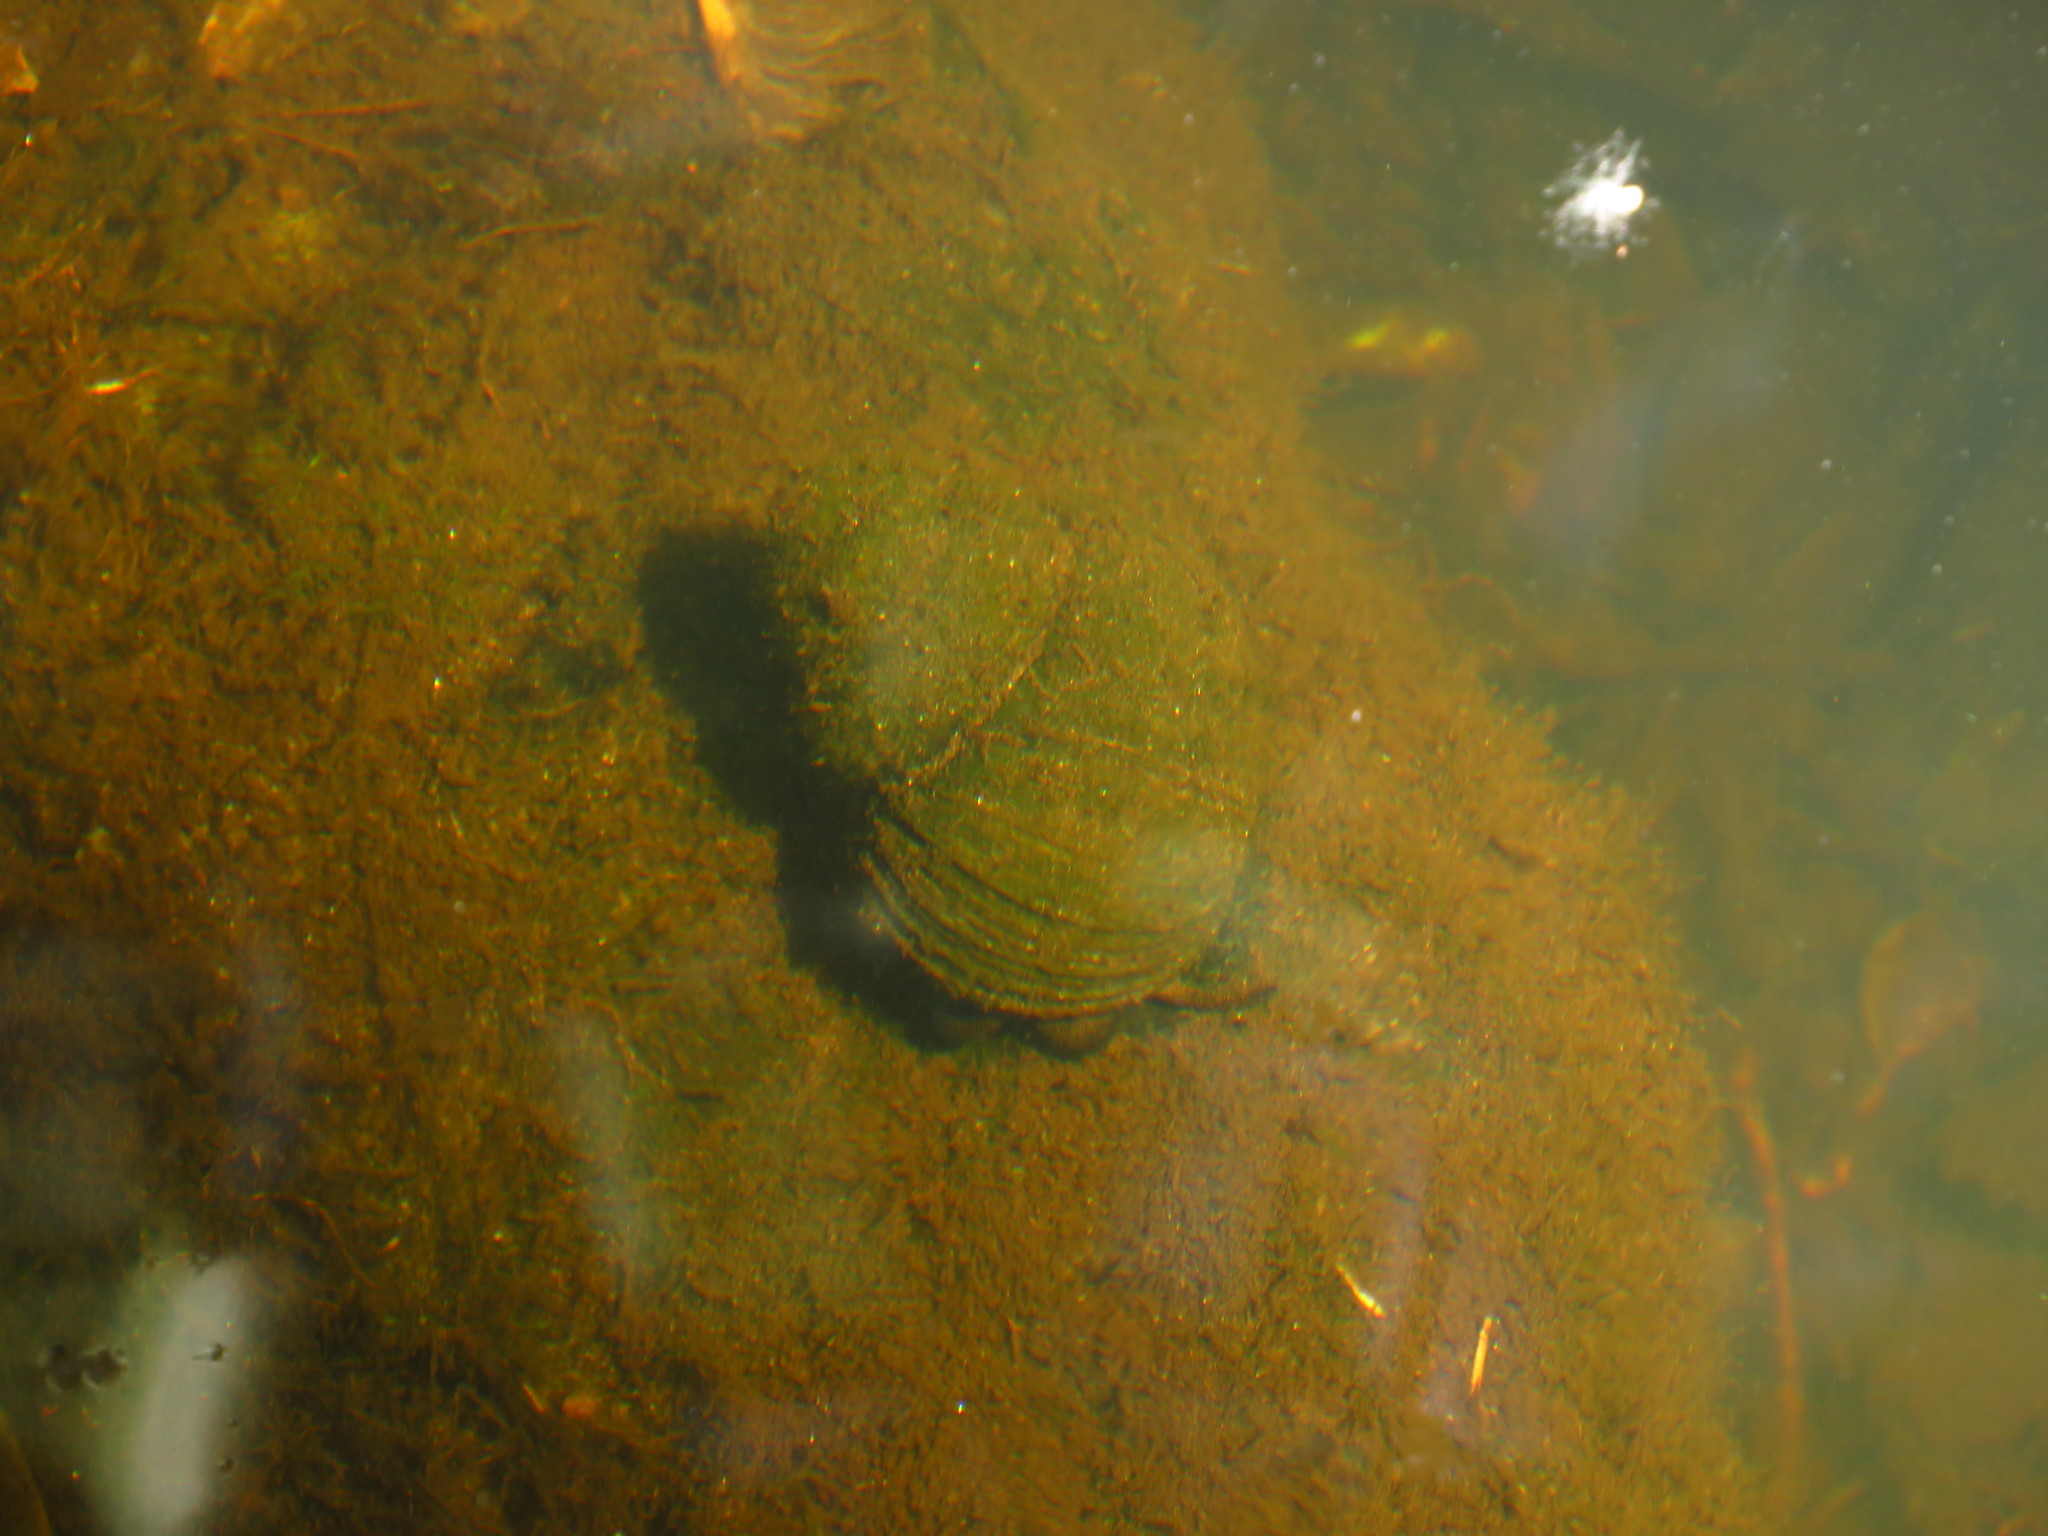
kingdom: Animalia
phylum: Mollusca
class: Gastropoda
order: Architaenioglossa
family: Viviparidae
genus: Cipangopaludina
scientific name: Cipangopaludina chinensis
